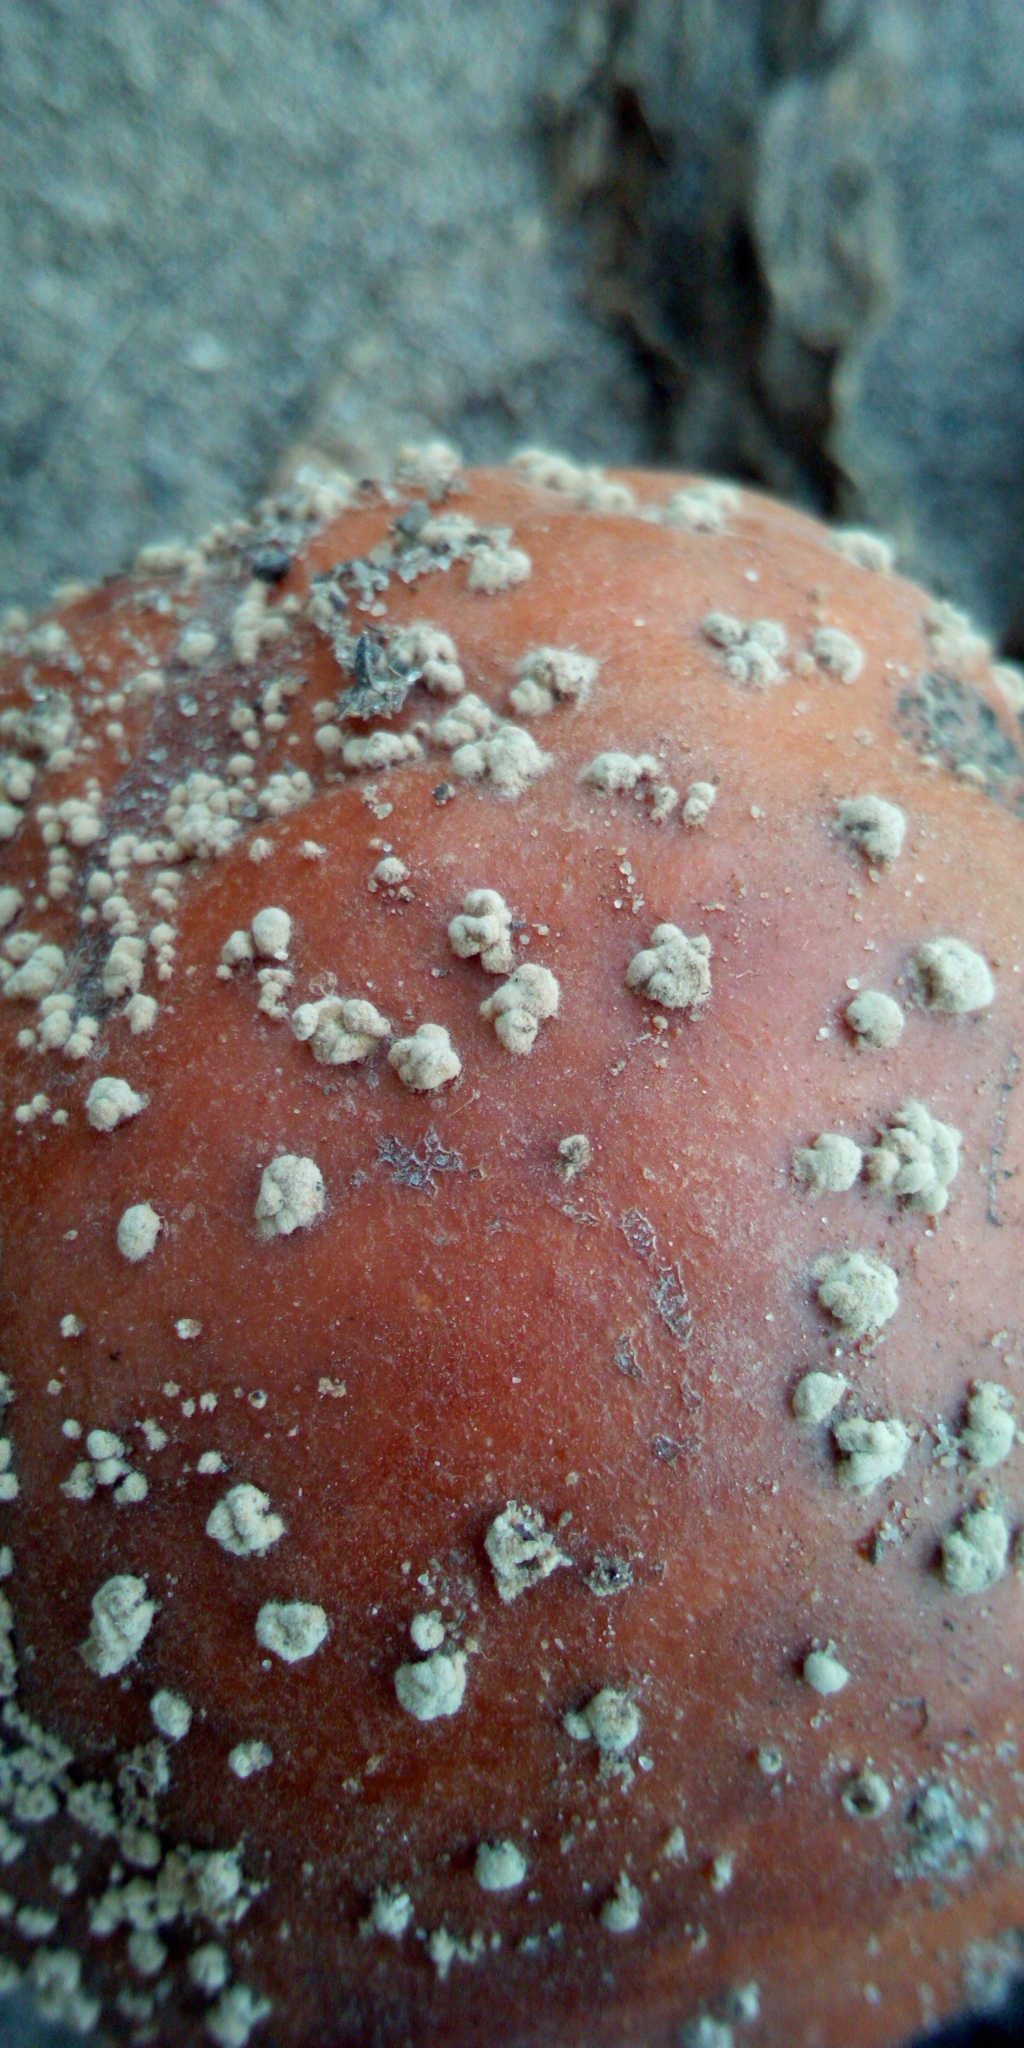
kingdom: Fungi
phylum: Ascomycota
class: Leotiomycetes
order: Helotiales
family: Sclerotiniaceae
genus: Monilinia
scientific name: Monilinia fructigena
